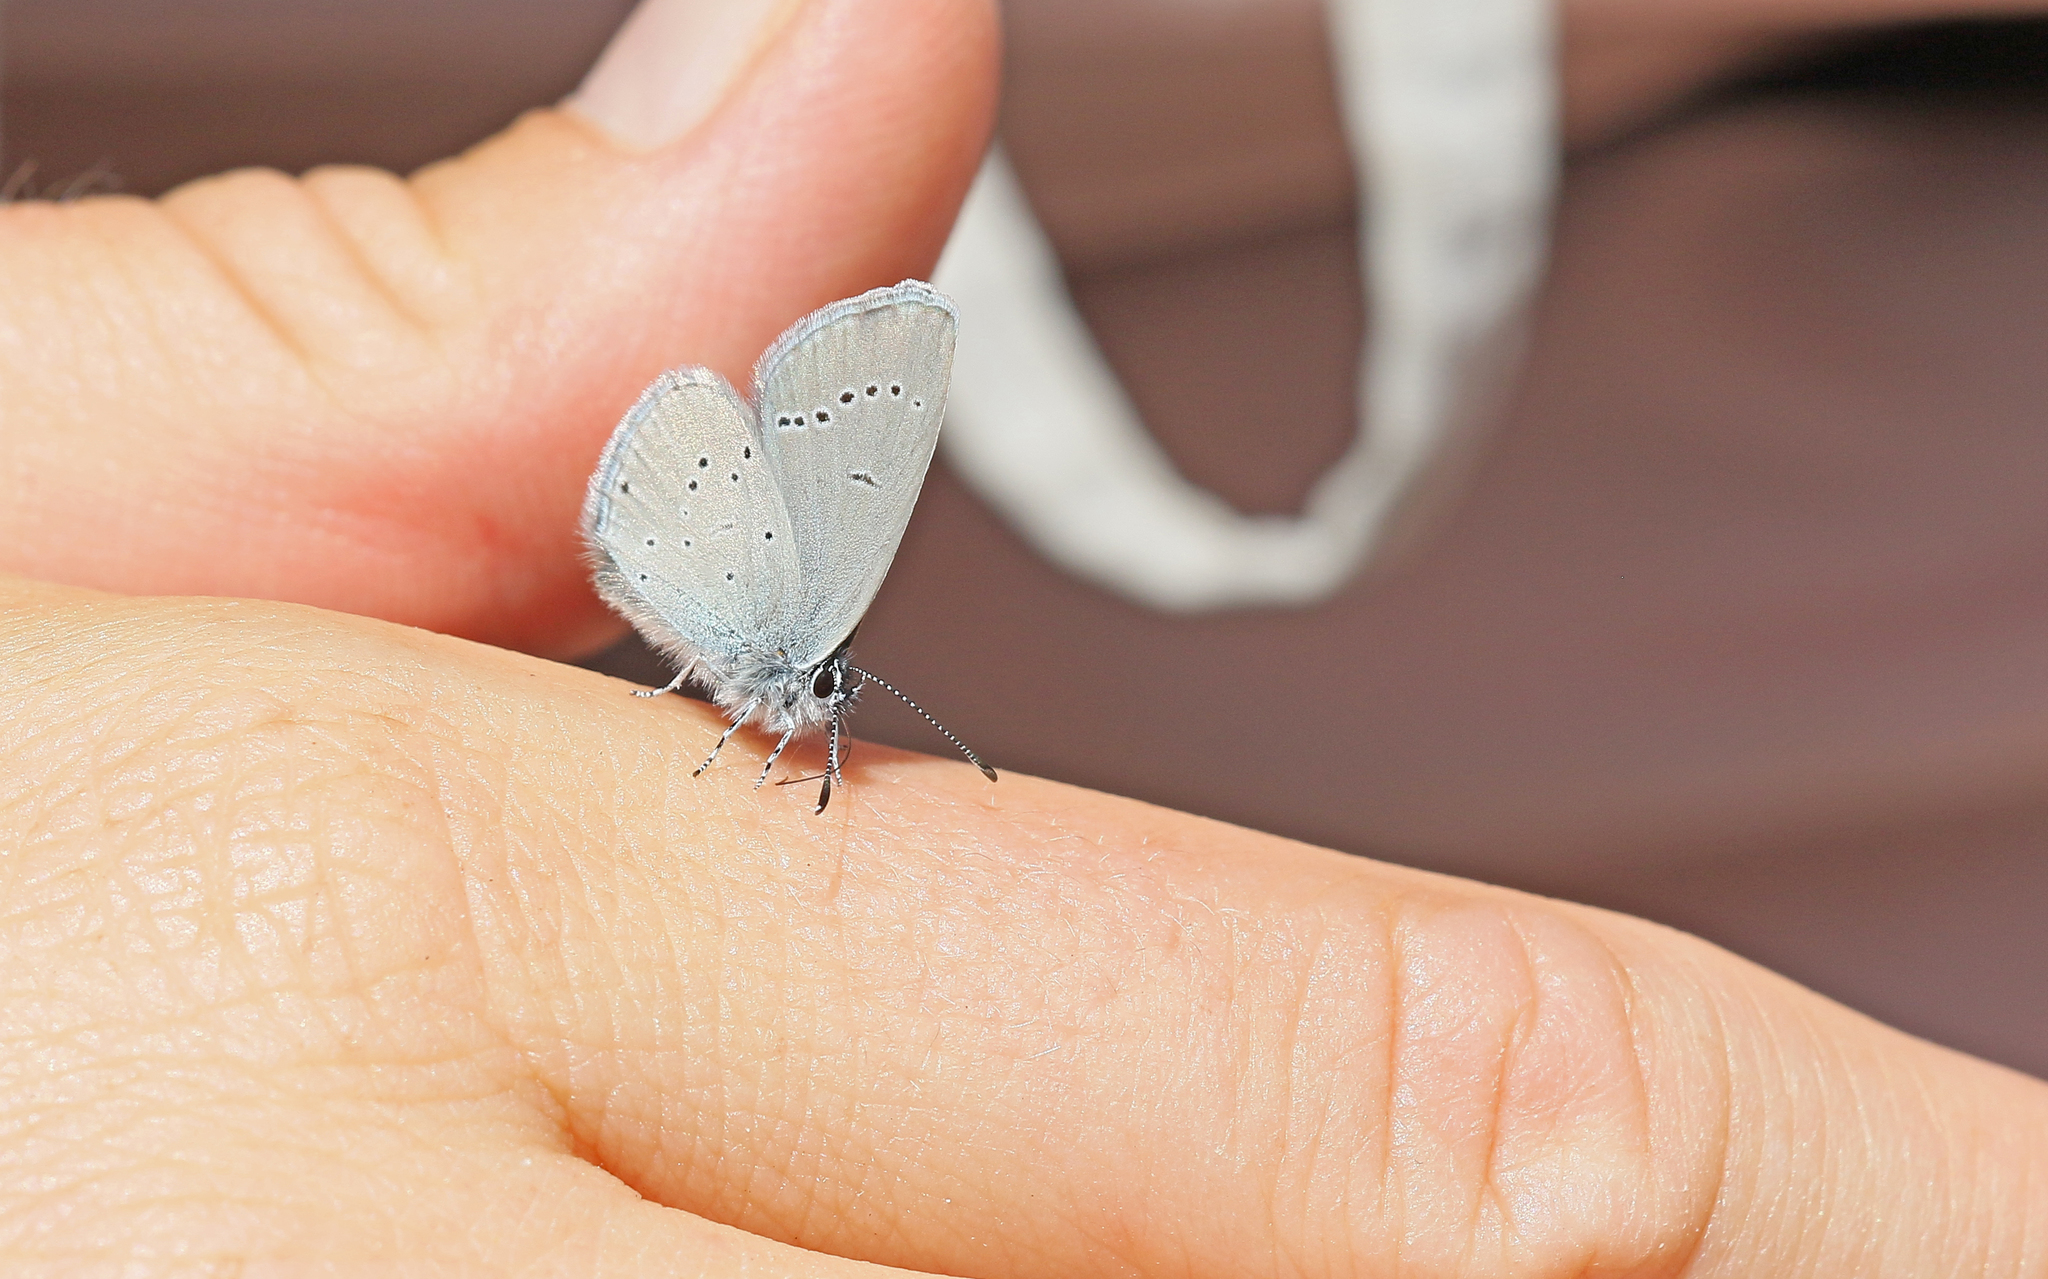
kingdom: Animalia
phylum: Arthropoda
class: Insecta
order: Lepidoptera
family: Lycaenidae
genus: Cupido
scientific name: Cupido minimus
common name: Small blue
